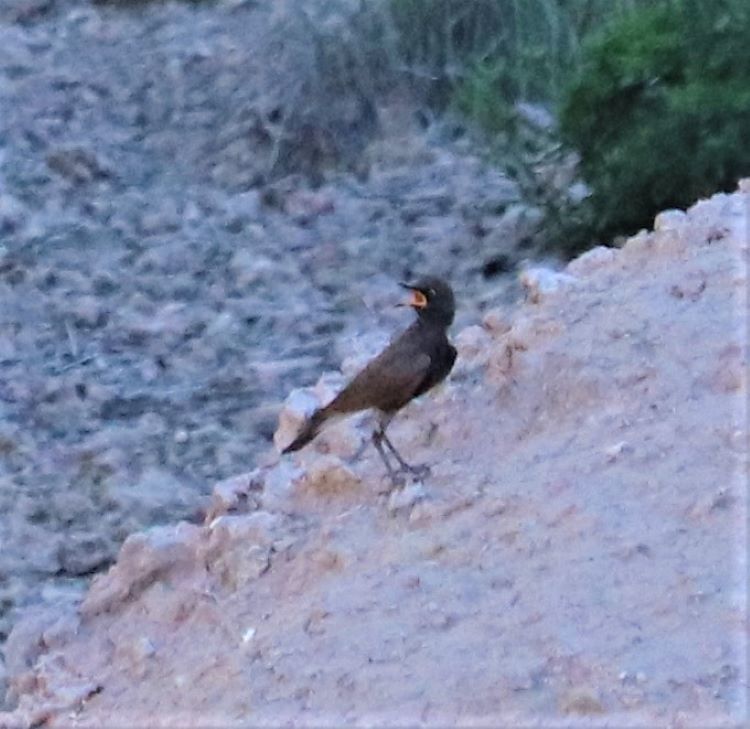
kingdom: Animalia
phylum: Chordata
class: Aves
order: Passeriformes
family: Sturnidae
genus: Lamprotornis
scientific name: Lamprotornis bicolor
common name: Pied starling
